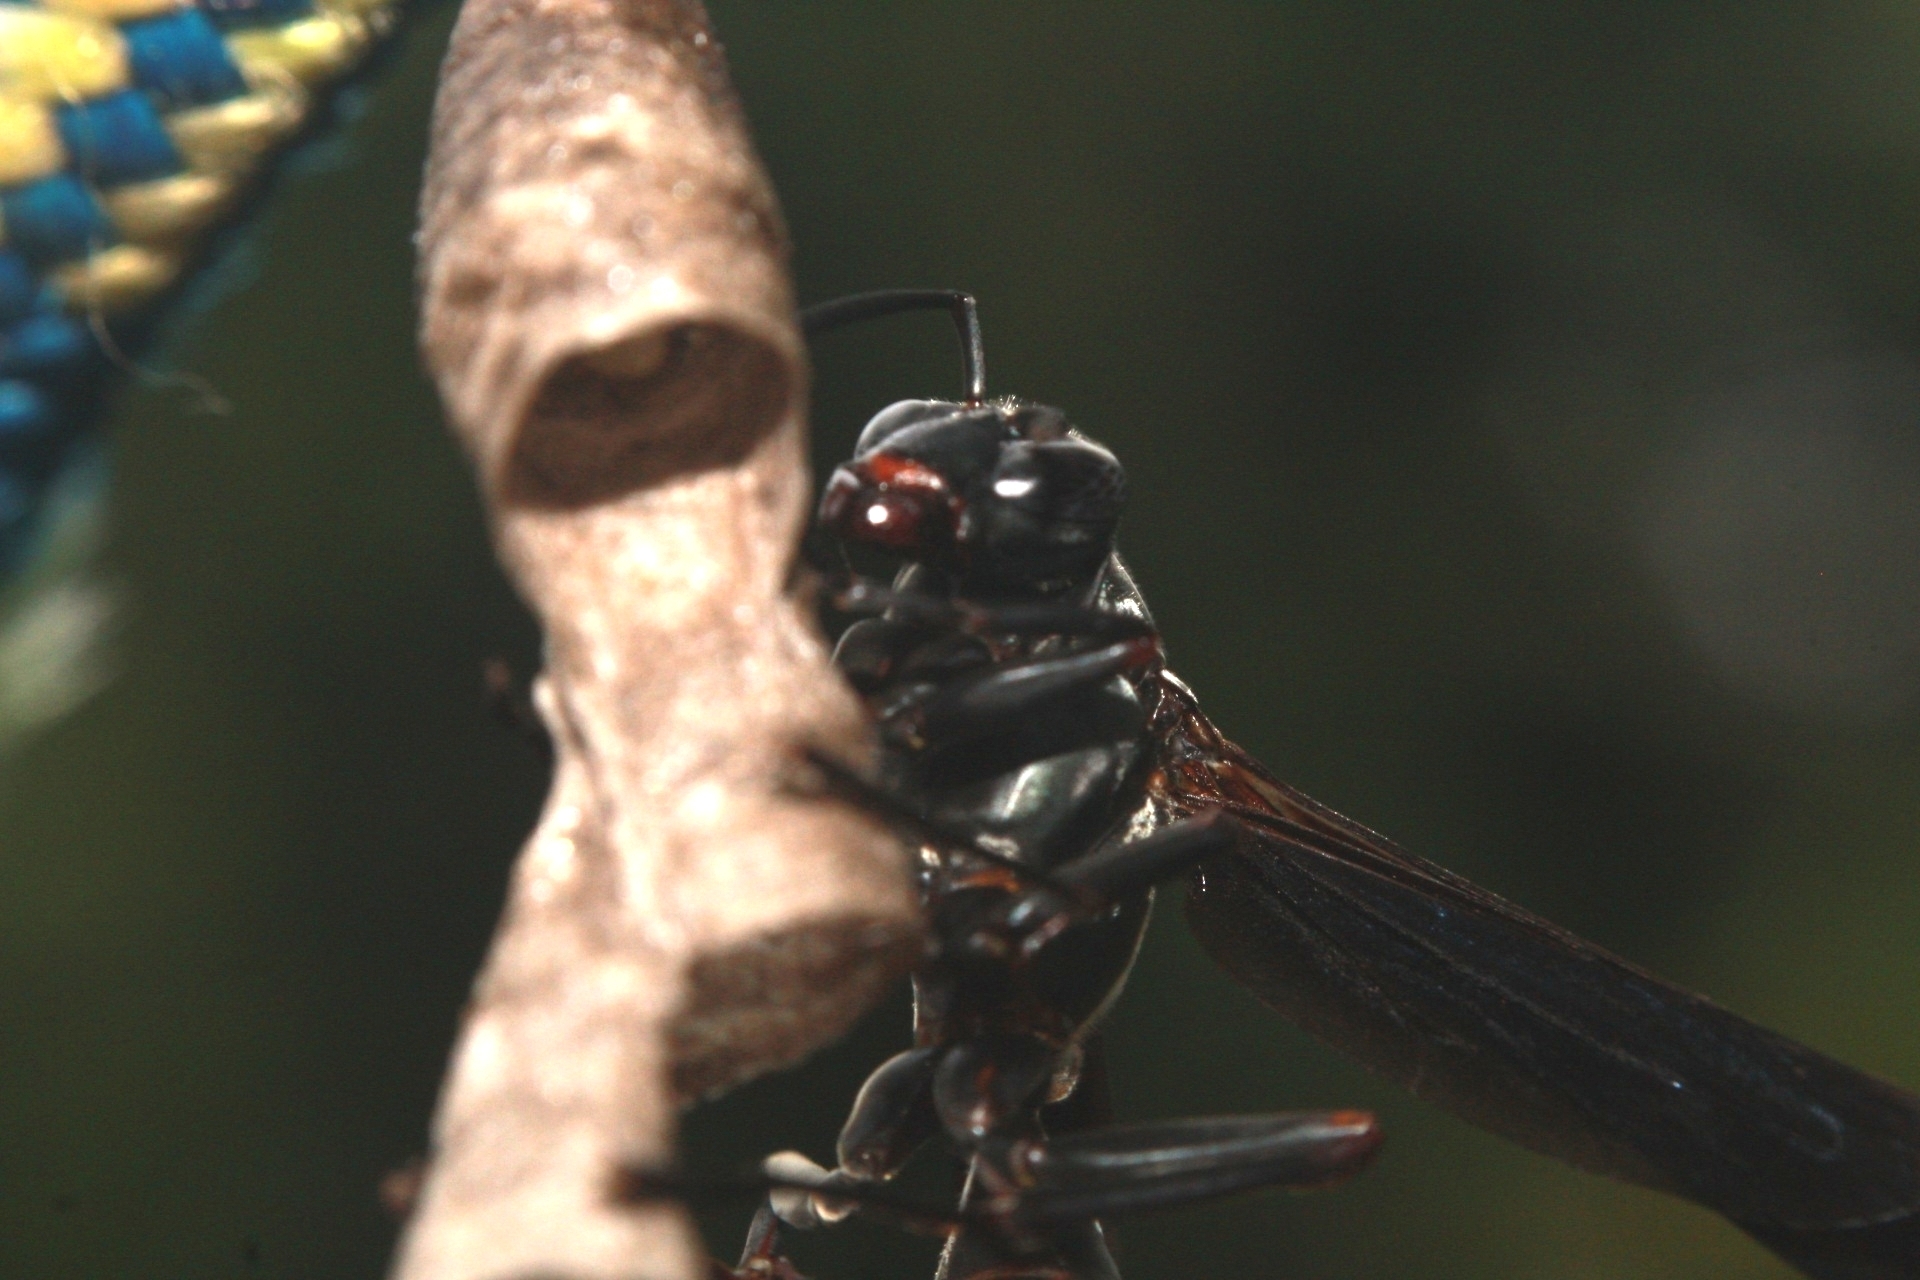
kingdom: Animalia
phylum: Arthropoda
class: Insecta
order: Hymenoptera
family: Eumenidae
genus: Polistes
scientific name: Polistes goeldii
